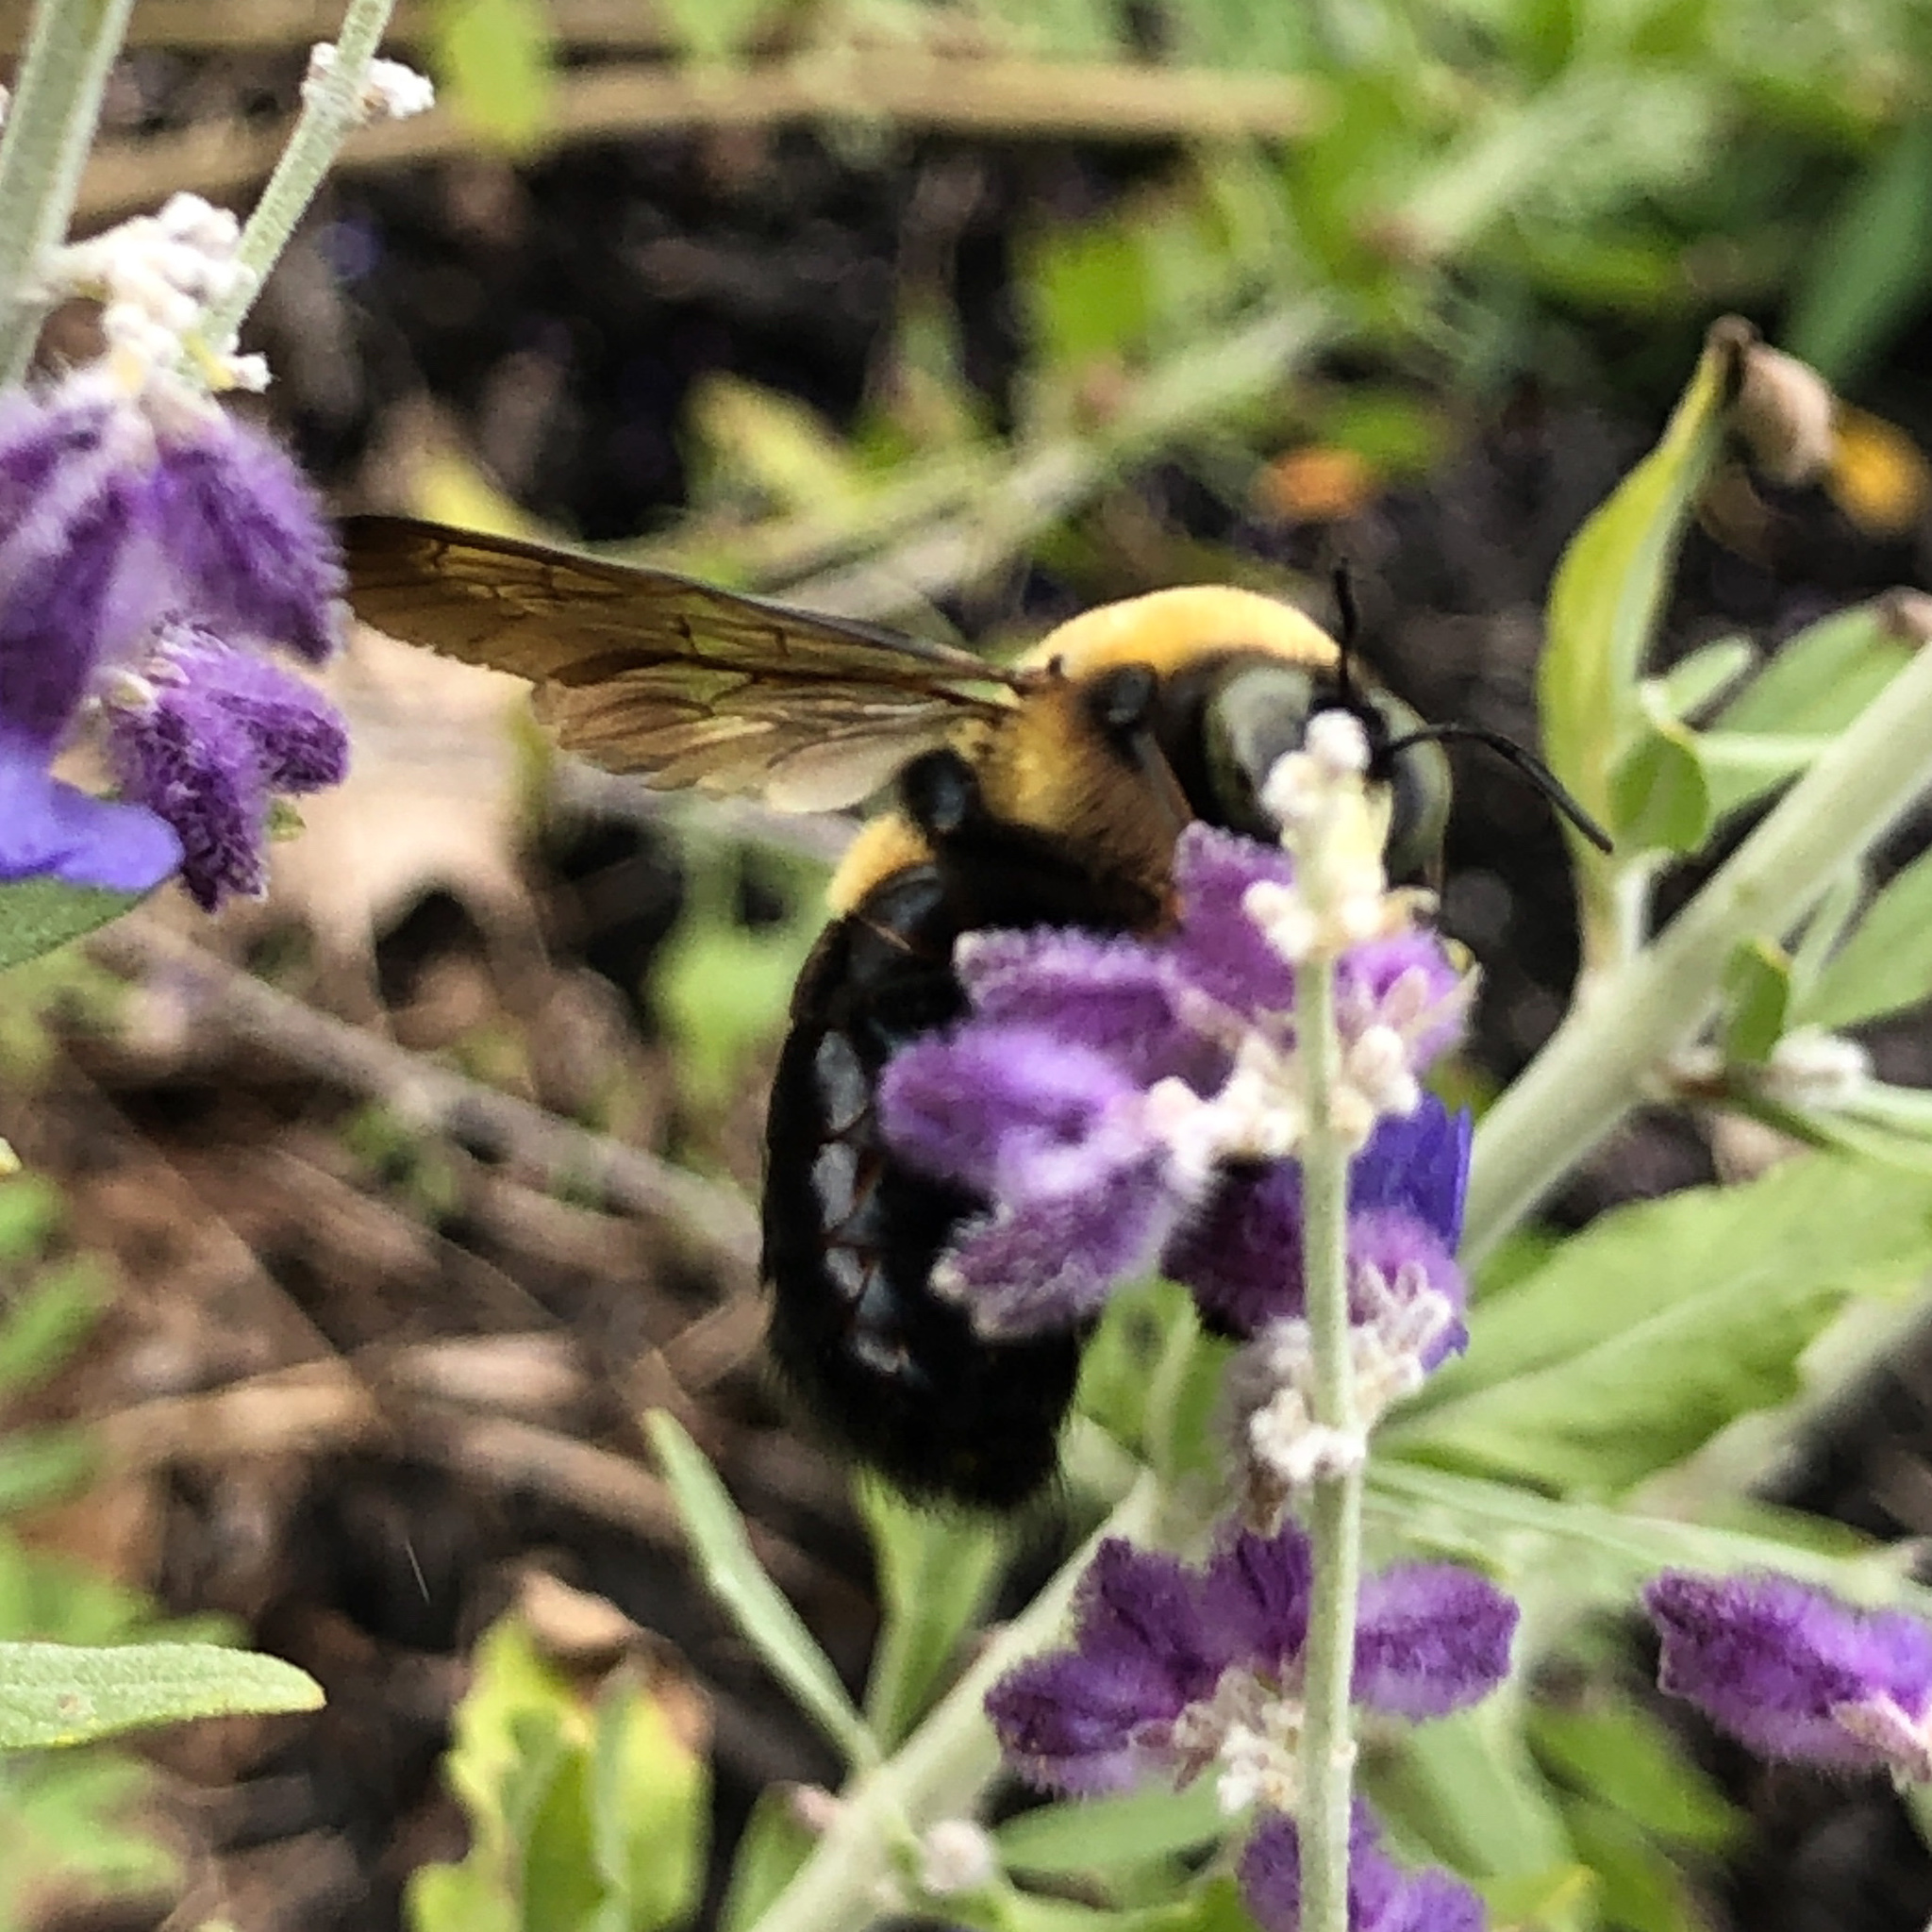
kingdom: Animalia
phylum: Arthropoda
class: Insecta
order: Hymenoptera
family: Apidae
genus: Bombus
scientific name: Bombus impatiens
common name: Common eastern bumble bee
